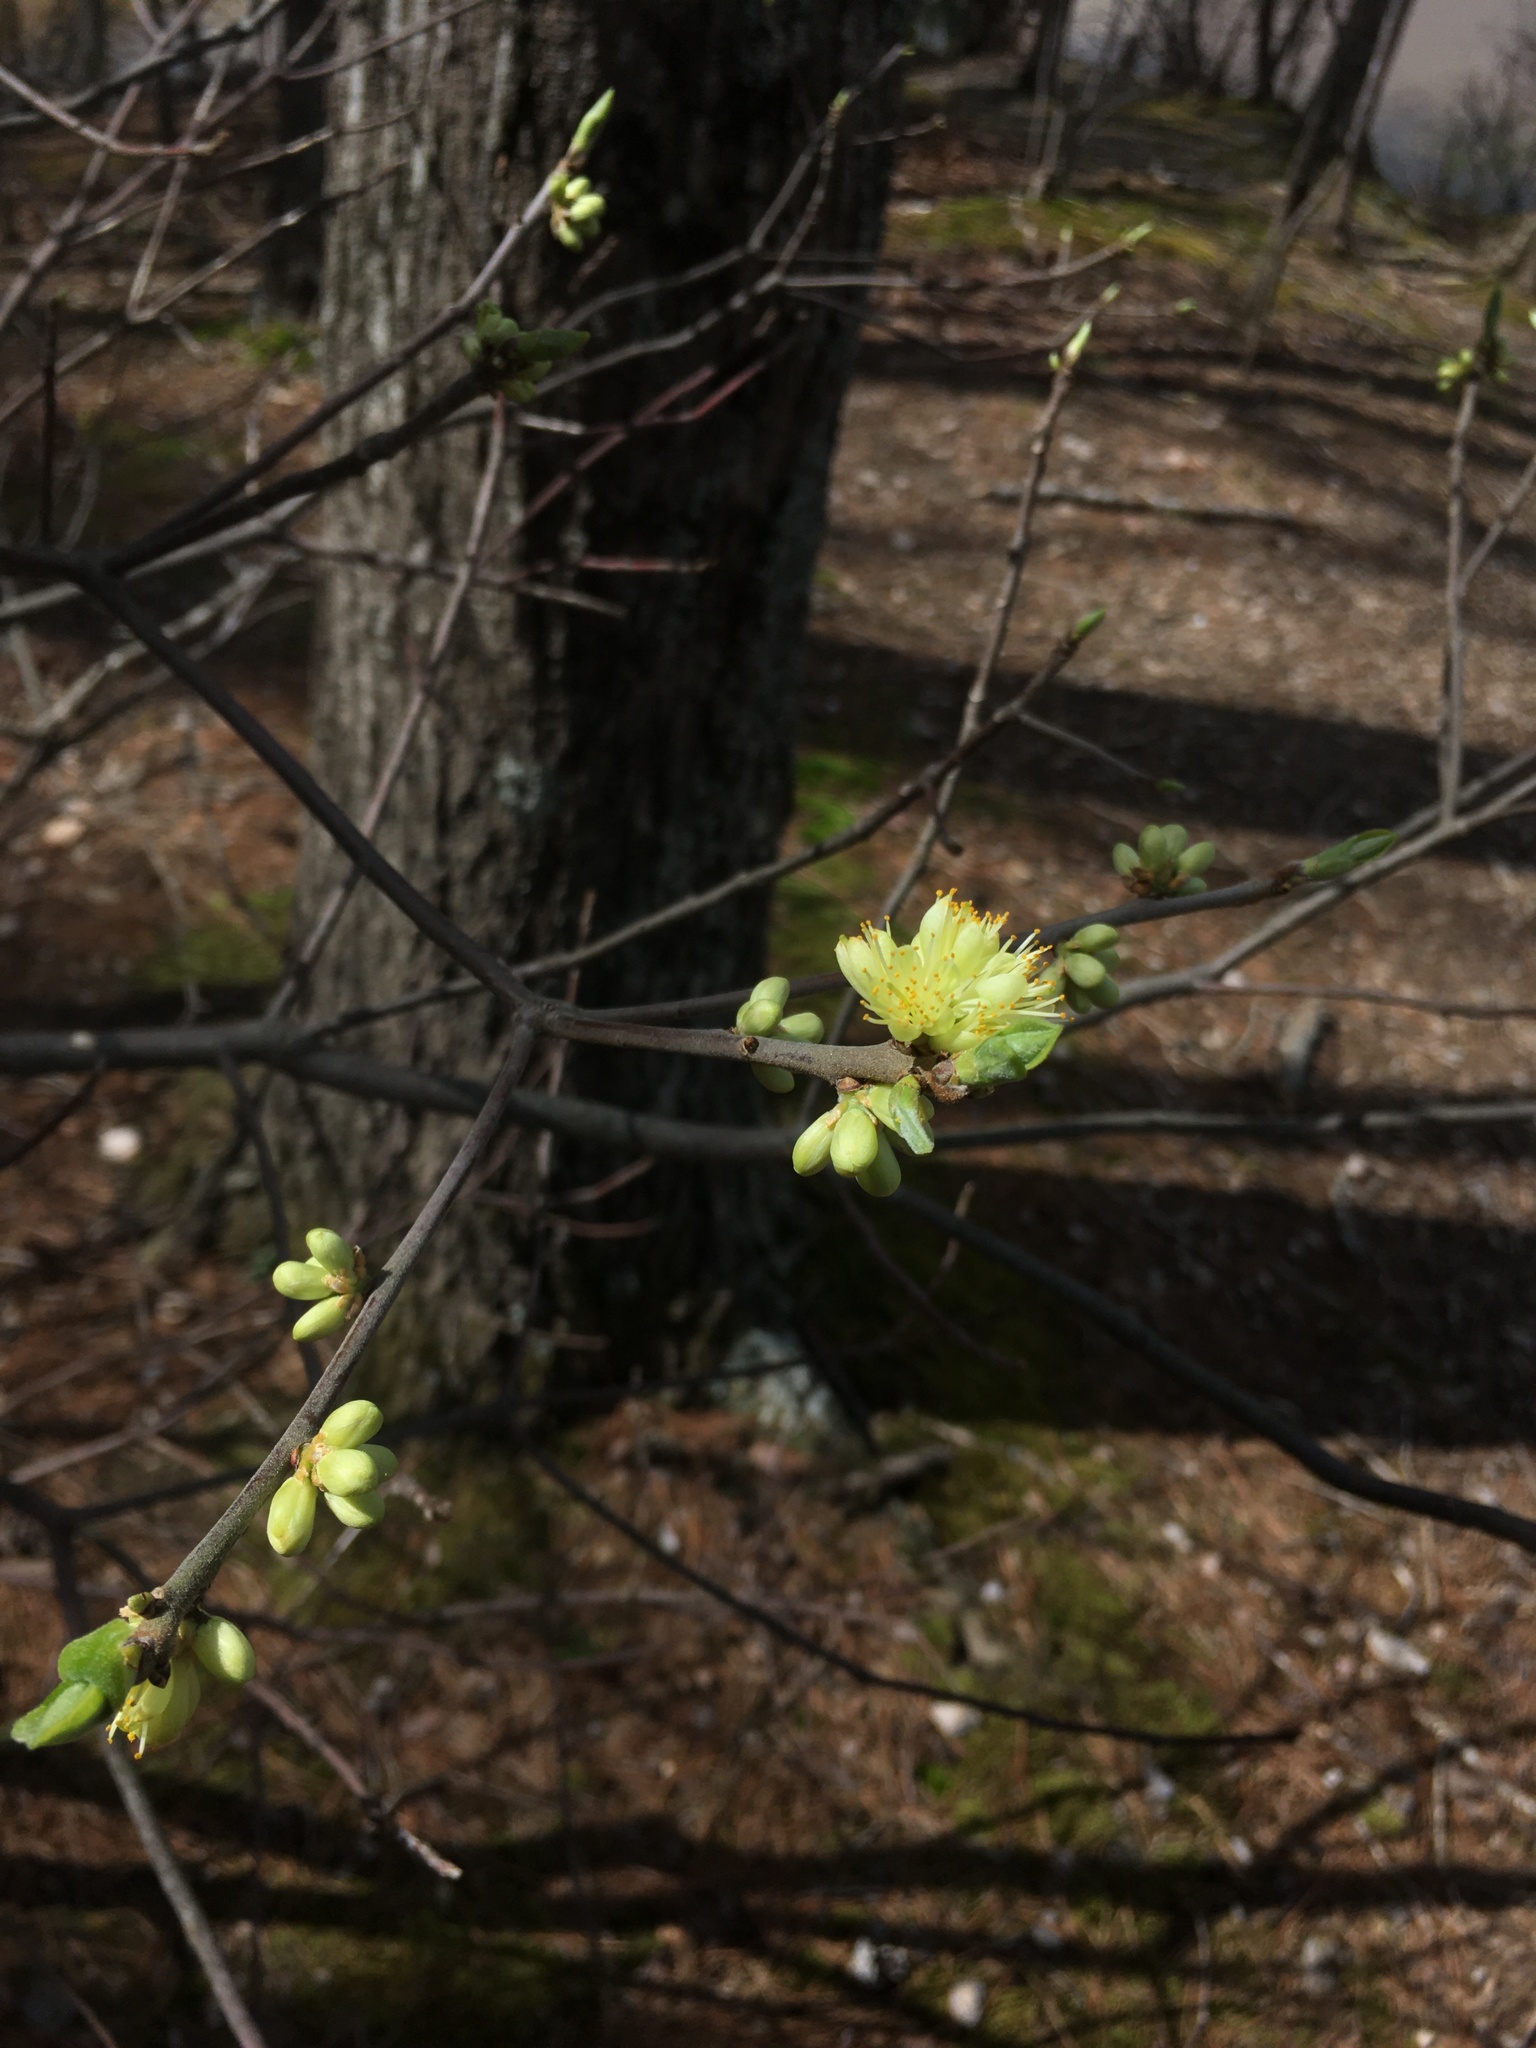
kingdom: Plantae
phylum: Tracheophyta
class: Magnoliopsida
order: Ericales
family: Symplocaceae
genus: Symplocos
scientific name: Symplocos tinctoria
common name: Horse-sugar
